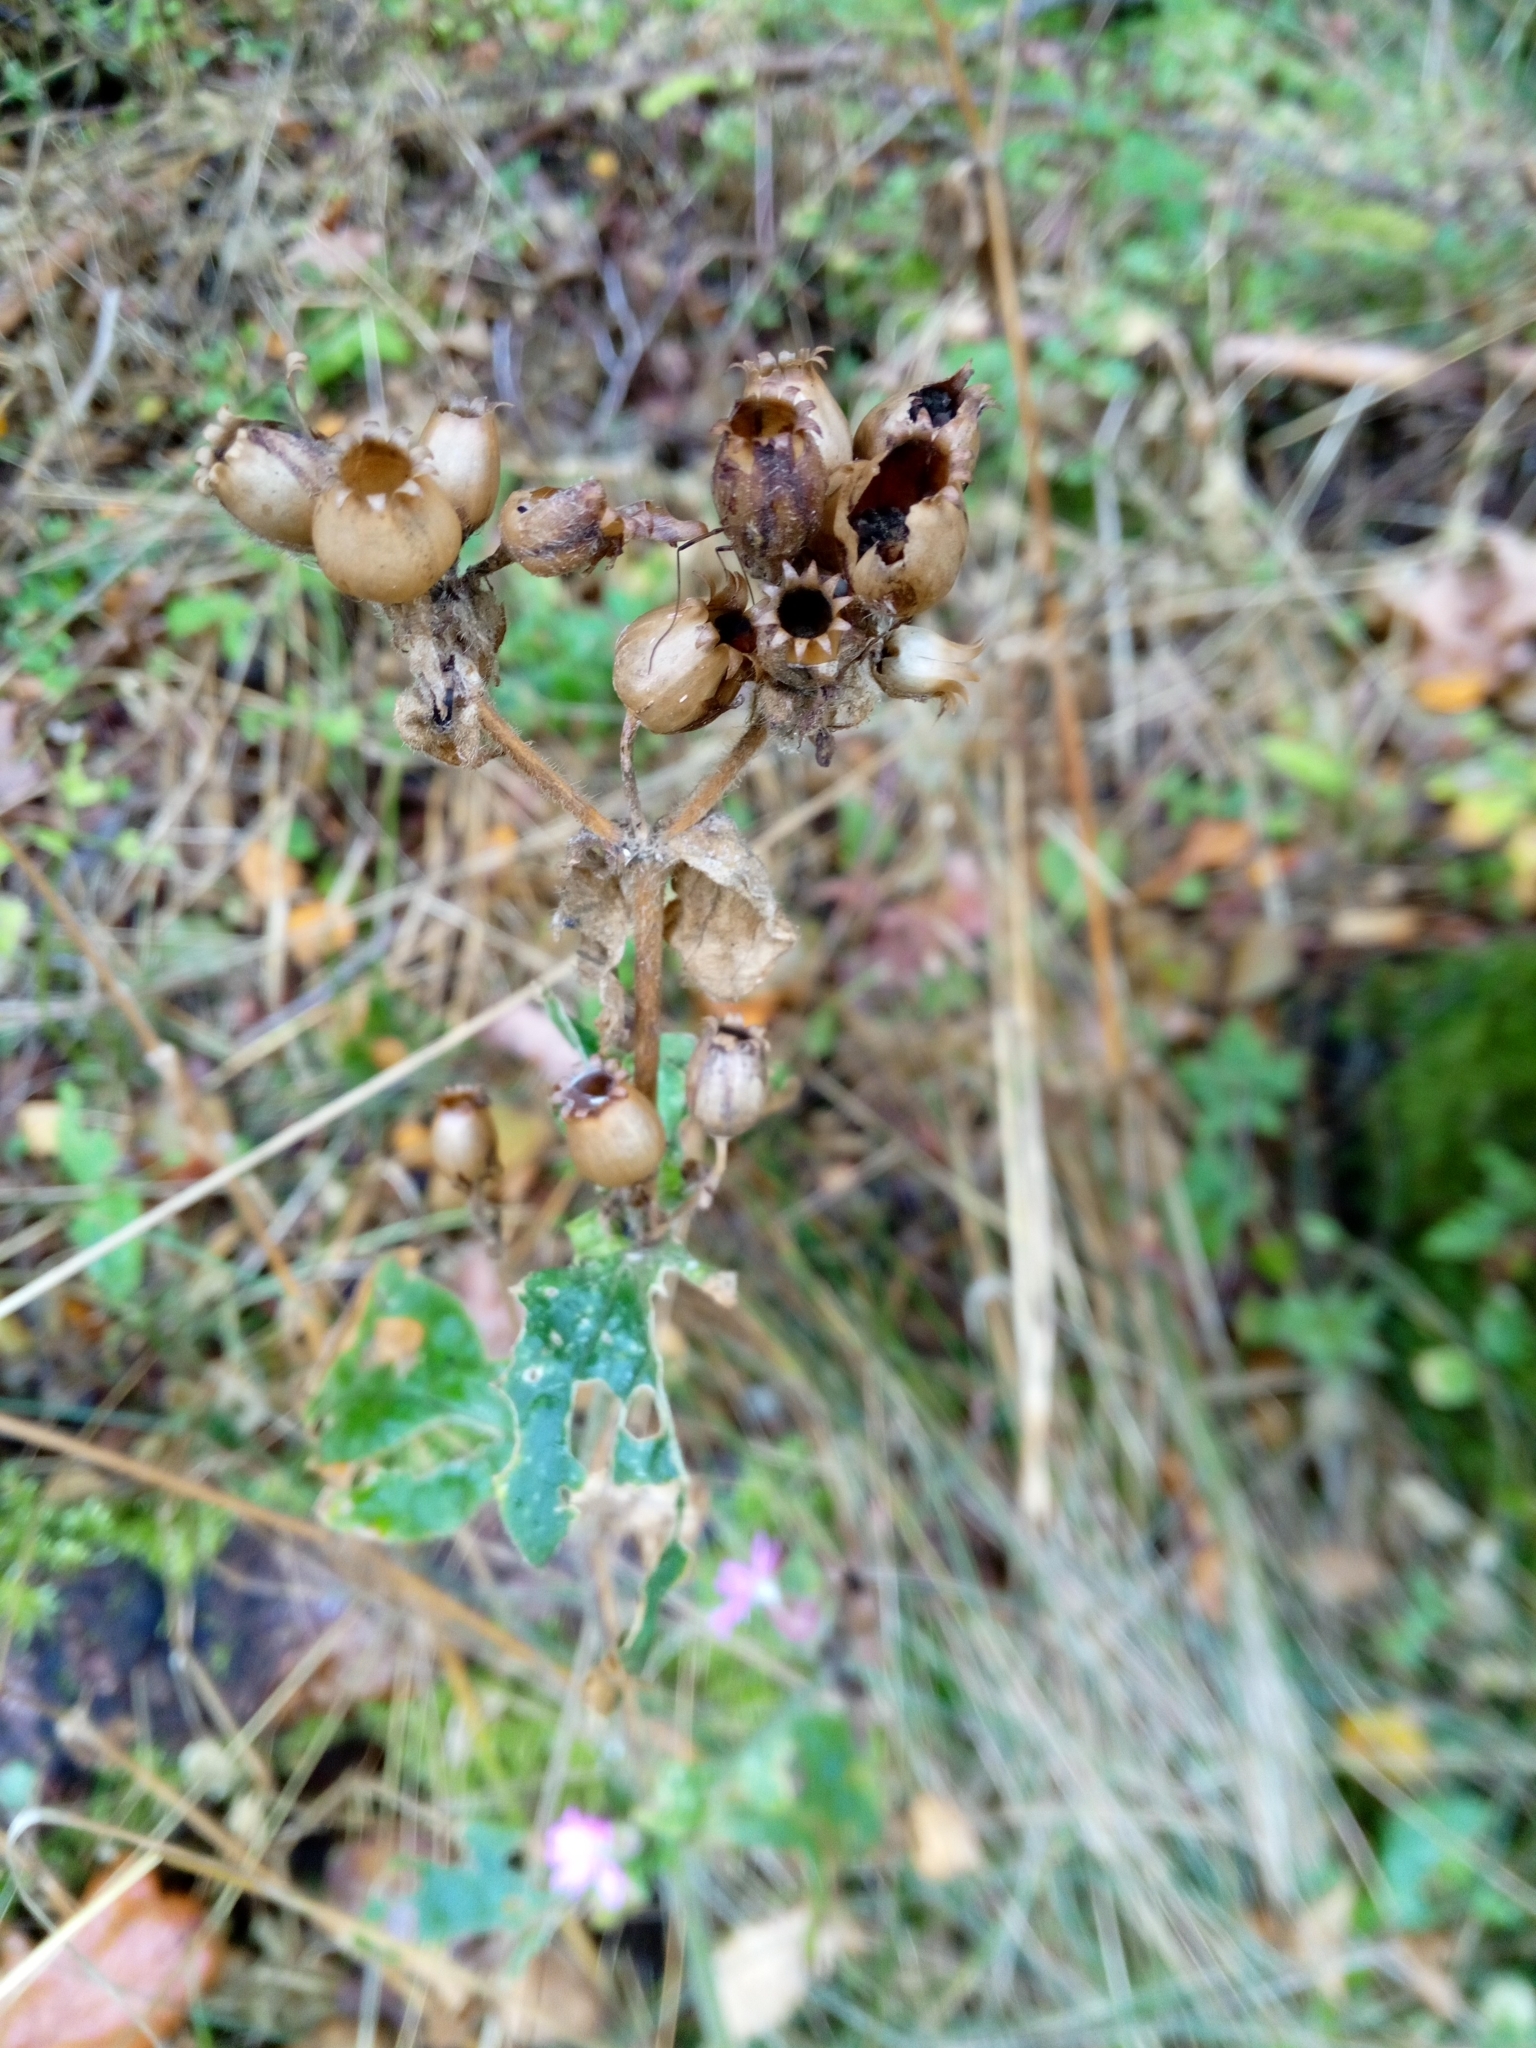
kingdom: Plantae
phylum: Tracheophyta
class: Magnoliopsida
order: Caryophyllales
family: Caryophyllaceae
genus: Silene
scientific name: Silene dioica
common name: Red campion
